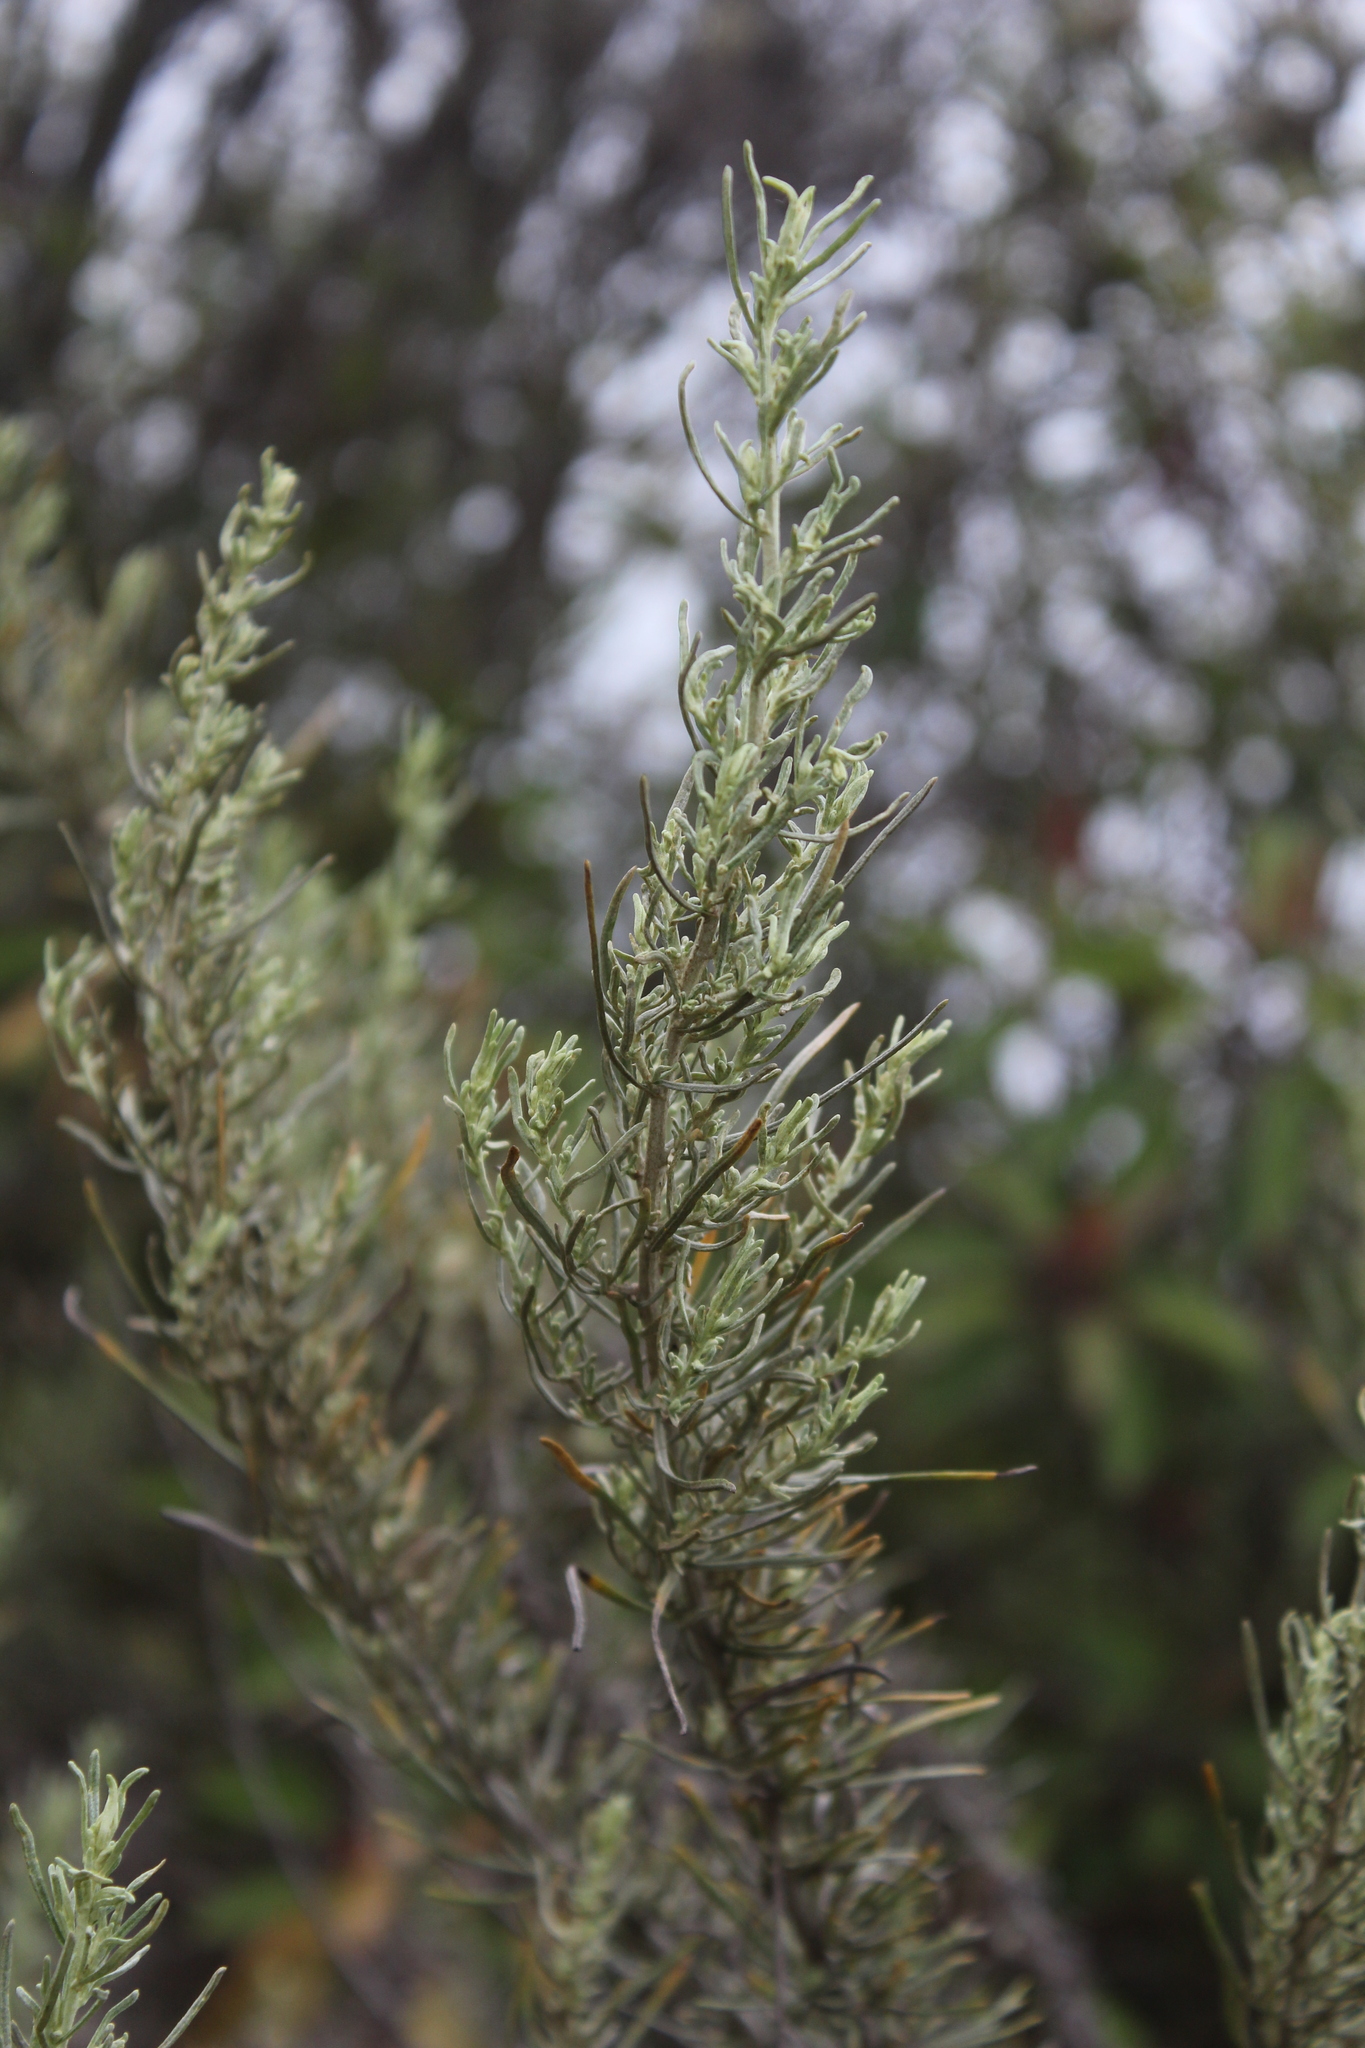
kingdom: Plantae
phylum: Tracheophyta
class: Magnoliopsida
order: Asterales
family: Asteraceae
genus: Artemisia
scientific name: Artemisia californica
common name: California sagebrush
